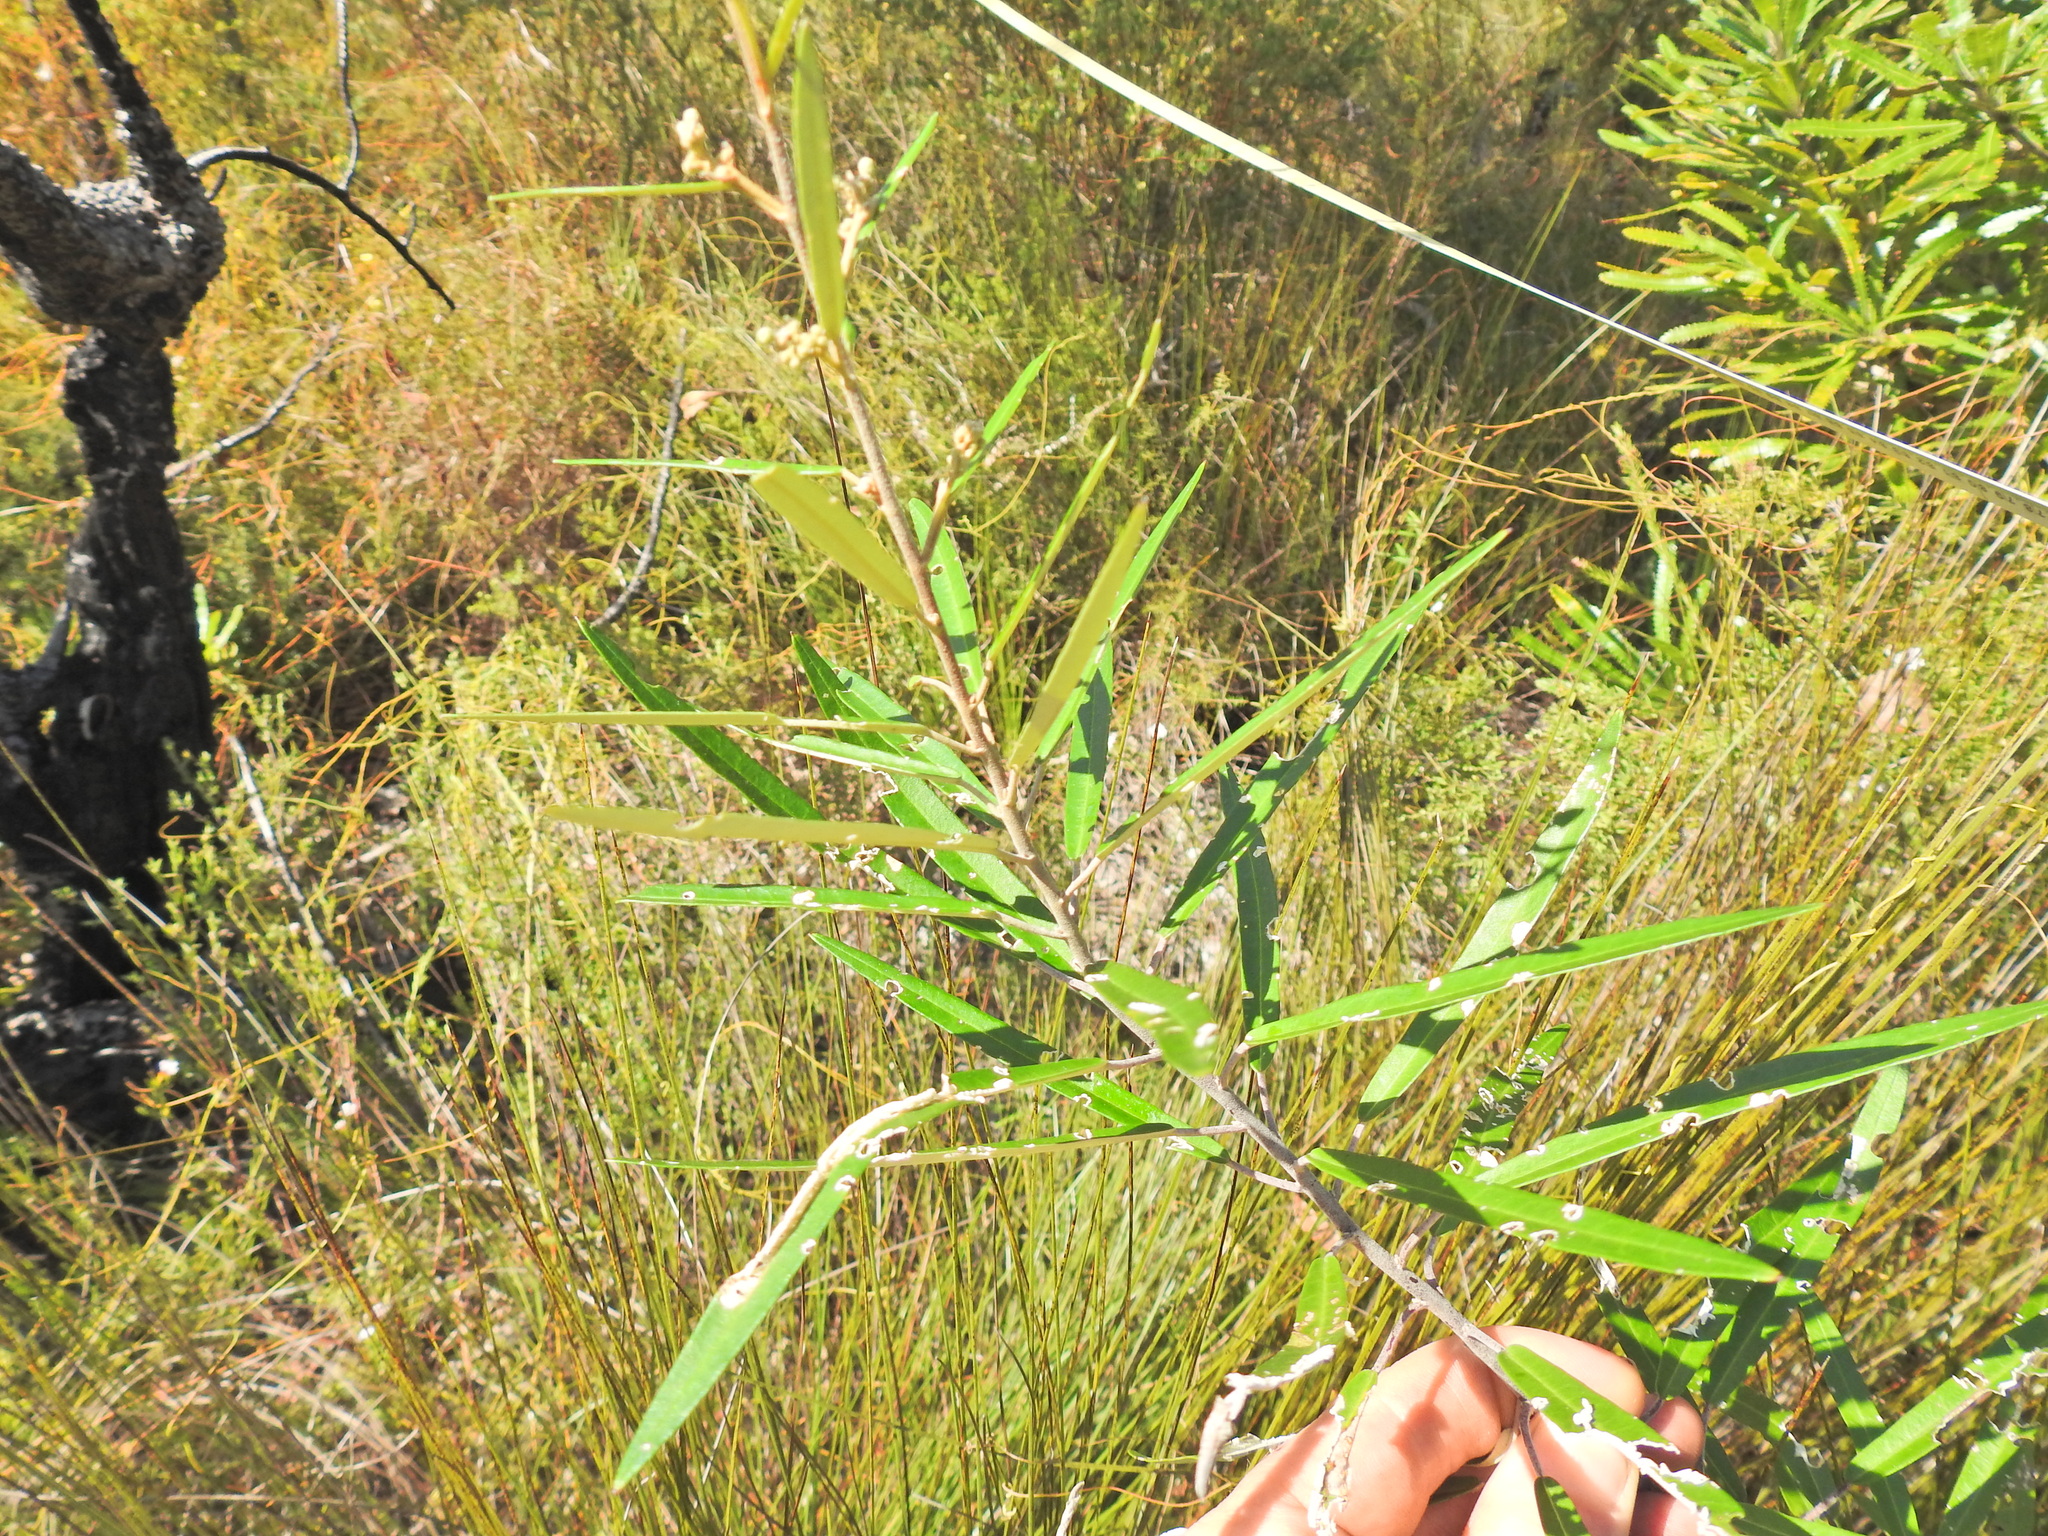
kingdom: Plantae
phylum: Tracheophyta
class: Magnoliopsida
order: Apiales
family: Araliaceae
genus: Astrotricha
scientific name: Astrotricha longifolia
